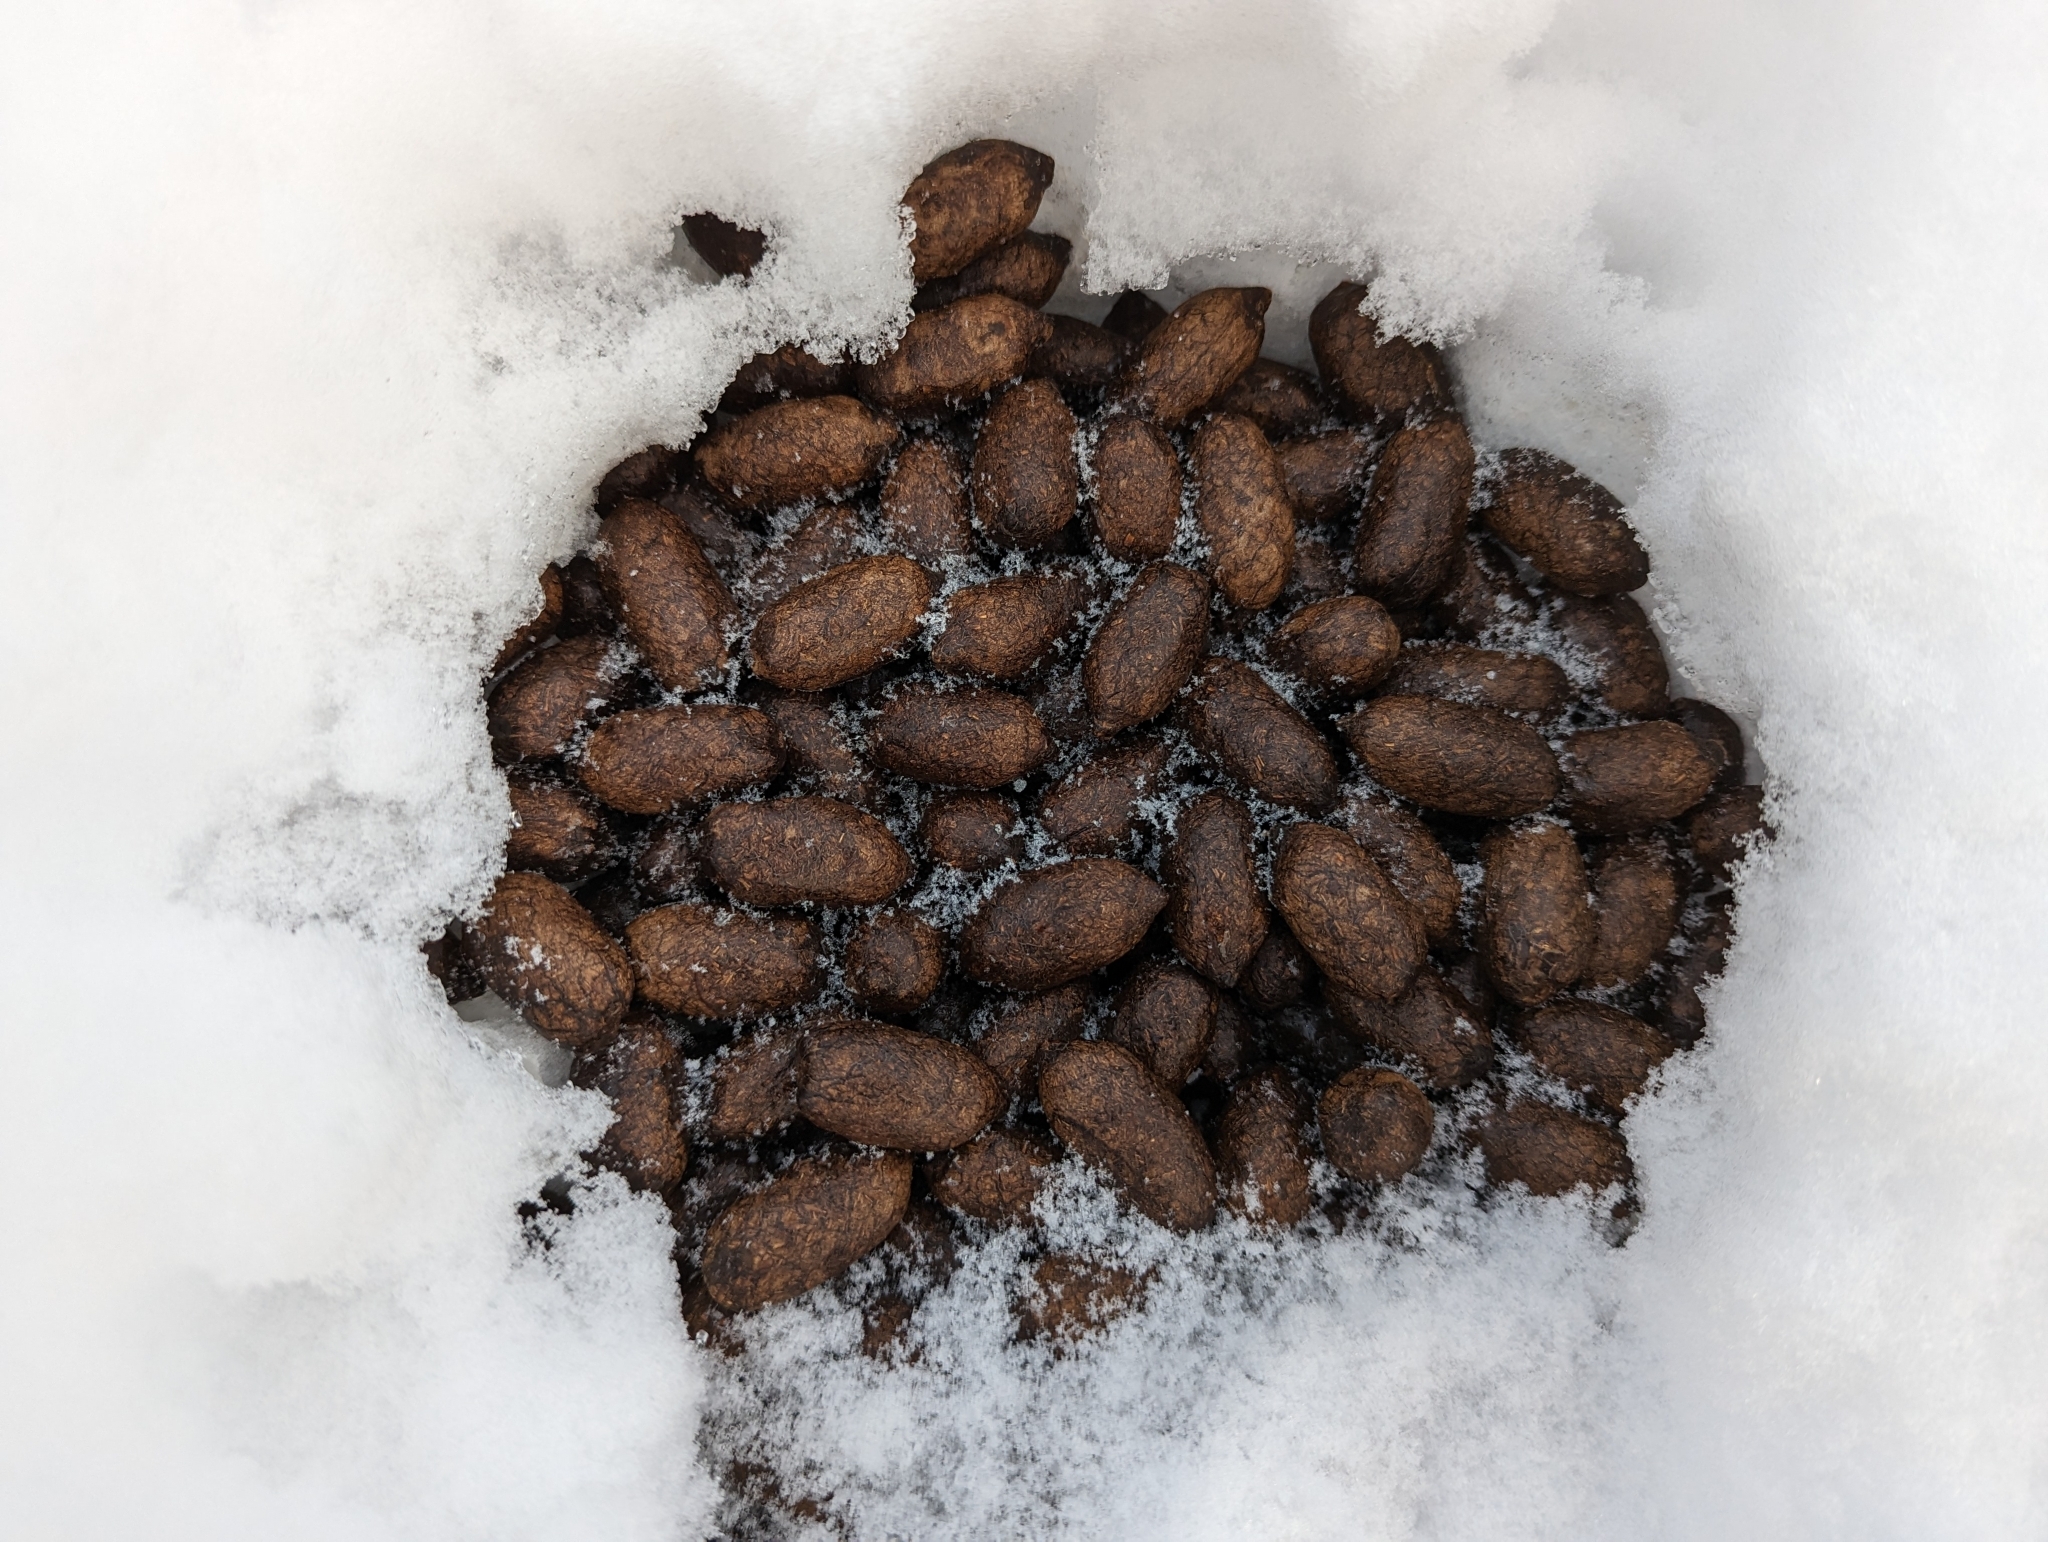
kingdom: Animalia
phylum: Chordata
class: Mammalia
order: Artiodactyla
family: Cervidae
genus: Alces
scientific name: Alces alces
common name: Moose
